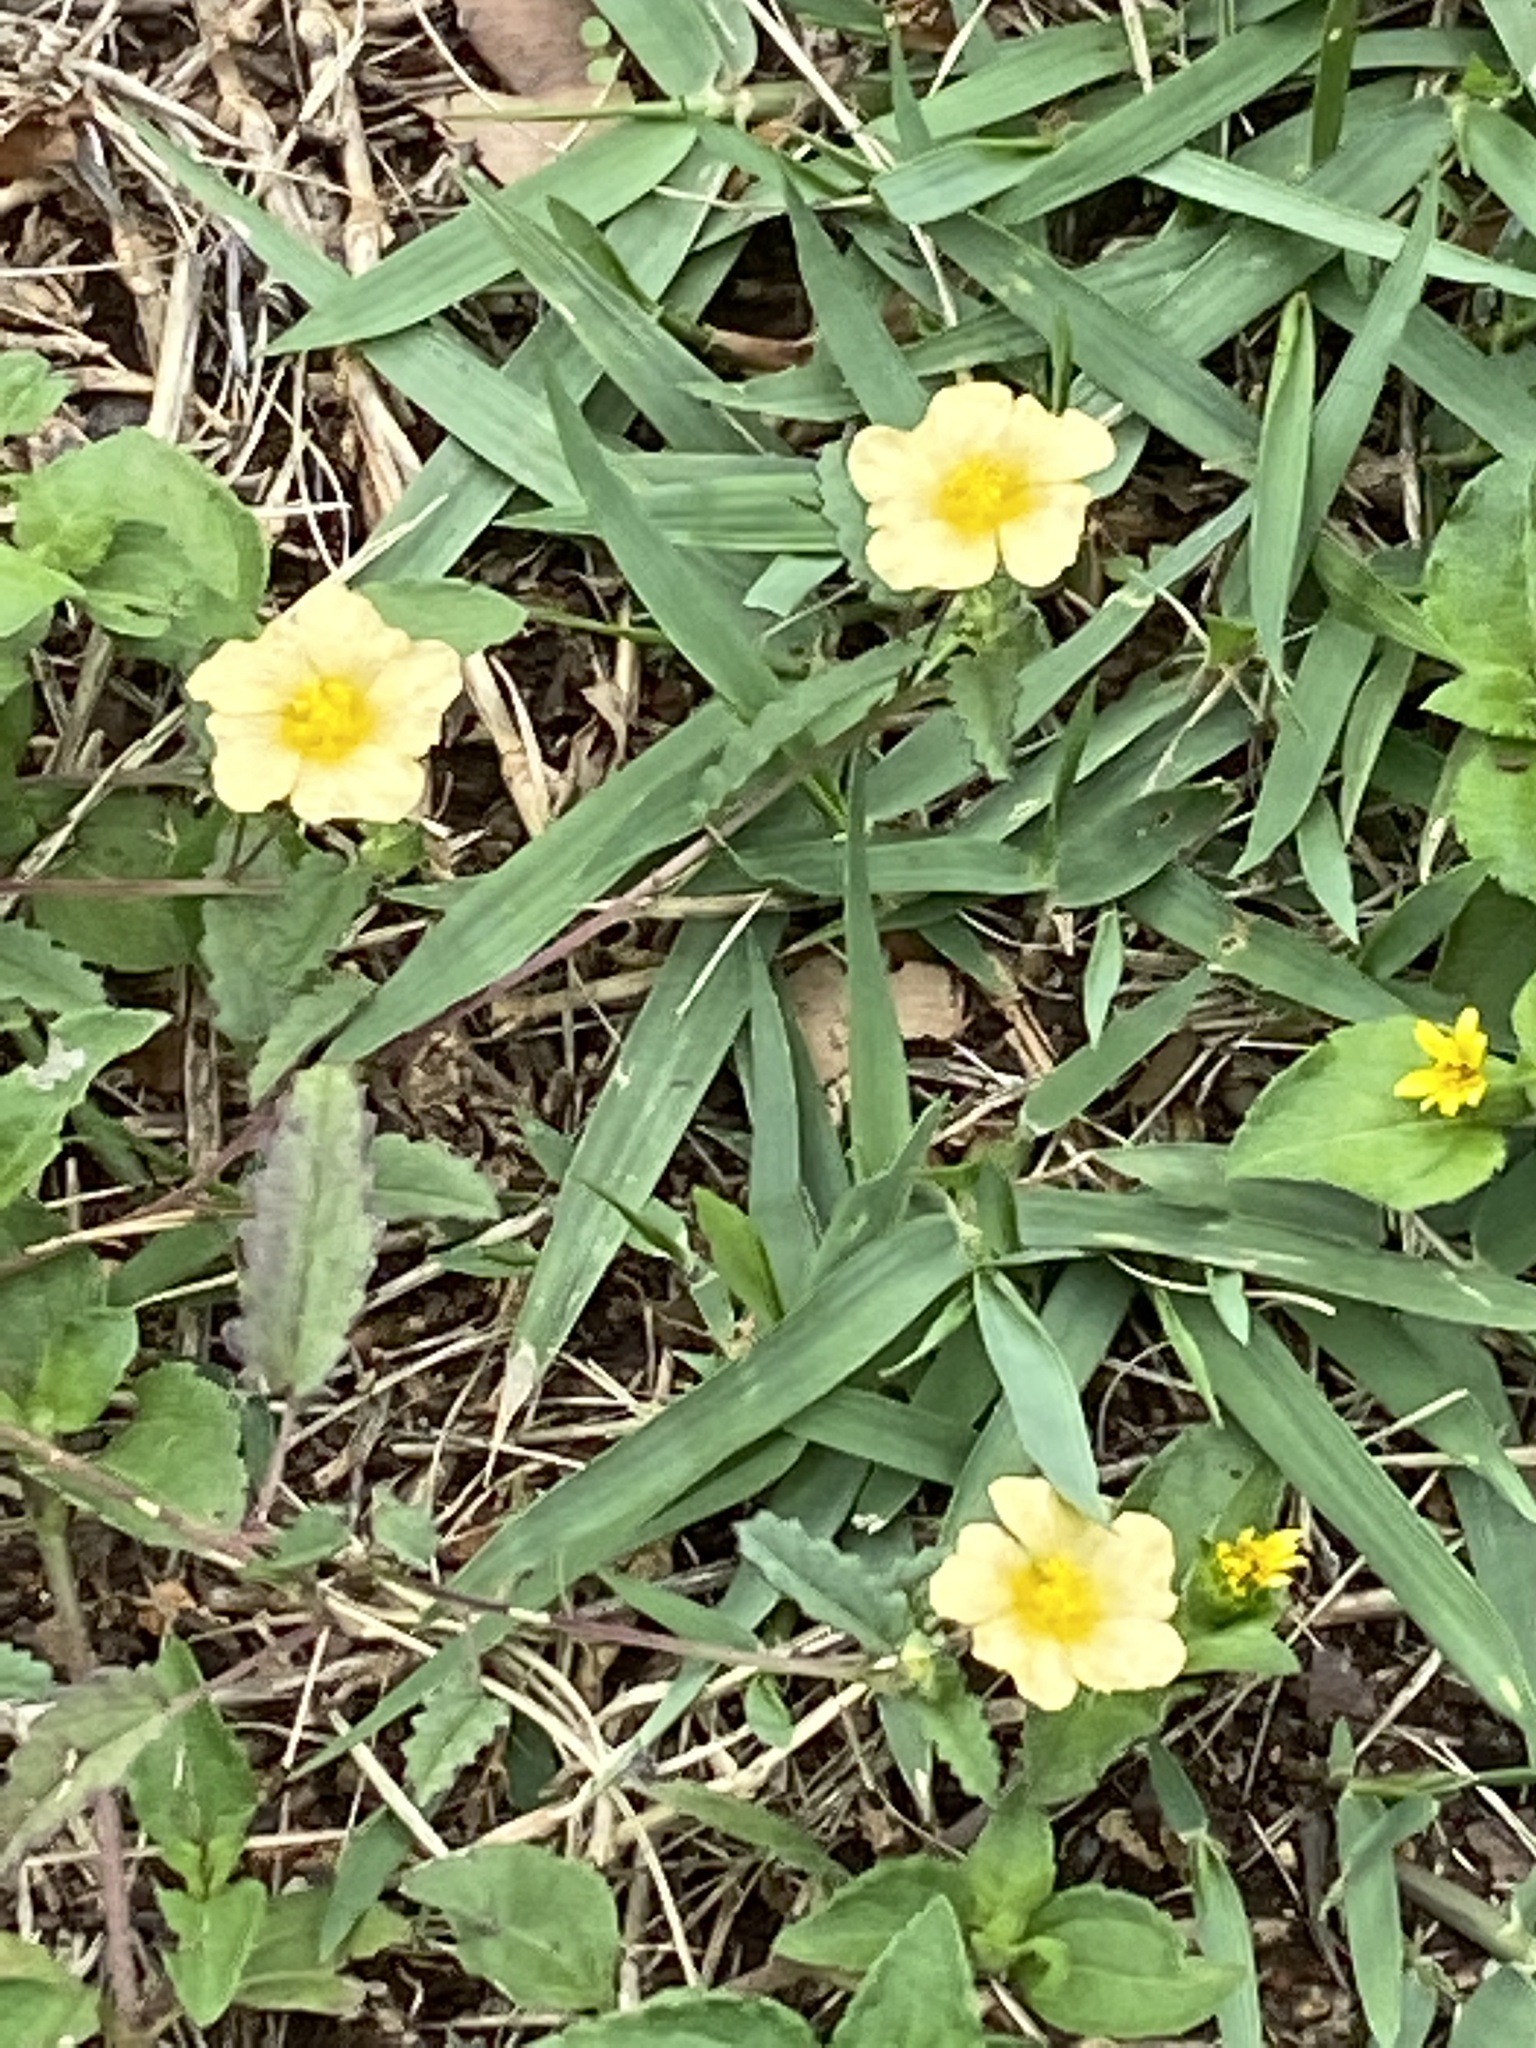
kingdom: Plantae
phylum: Tracheophyta
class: Magnoliopsida
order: Malvales
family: Malvaceae
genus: Sida
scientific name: Sida abutilifolia
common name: Spreading fanpetals
